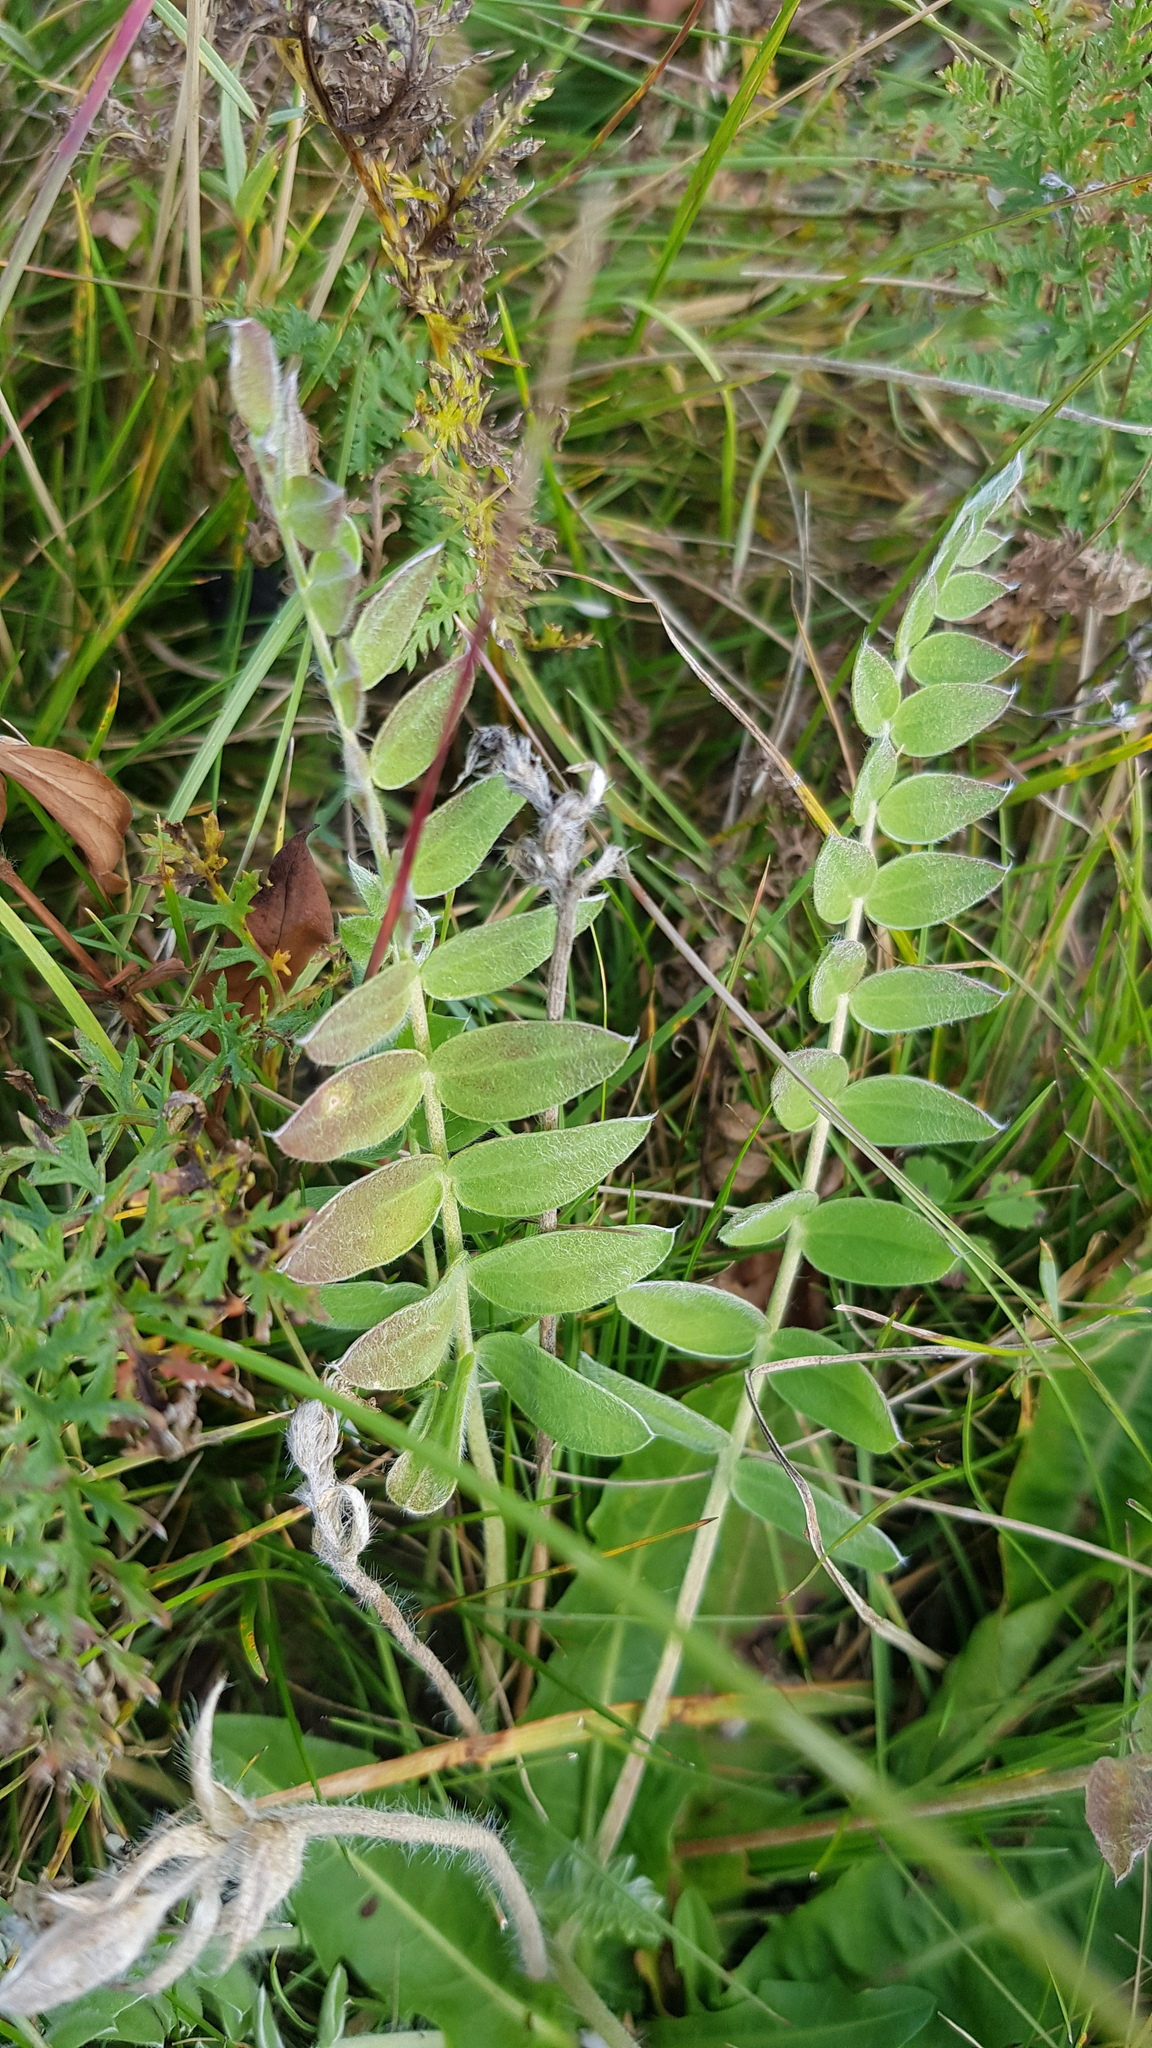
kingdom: Plantae
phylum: Tracheophyta
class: Magnoliopsida
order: Fabales
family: Fabaceae
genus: Oxytropis
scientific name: Oxytropis strobilacea
